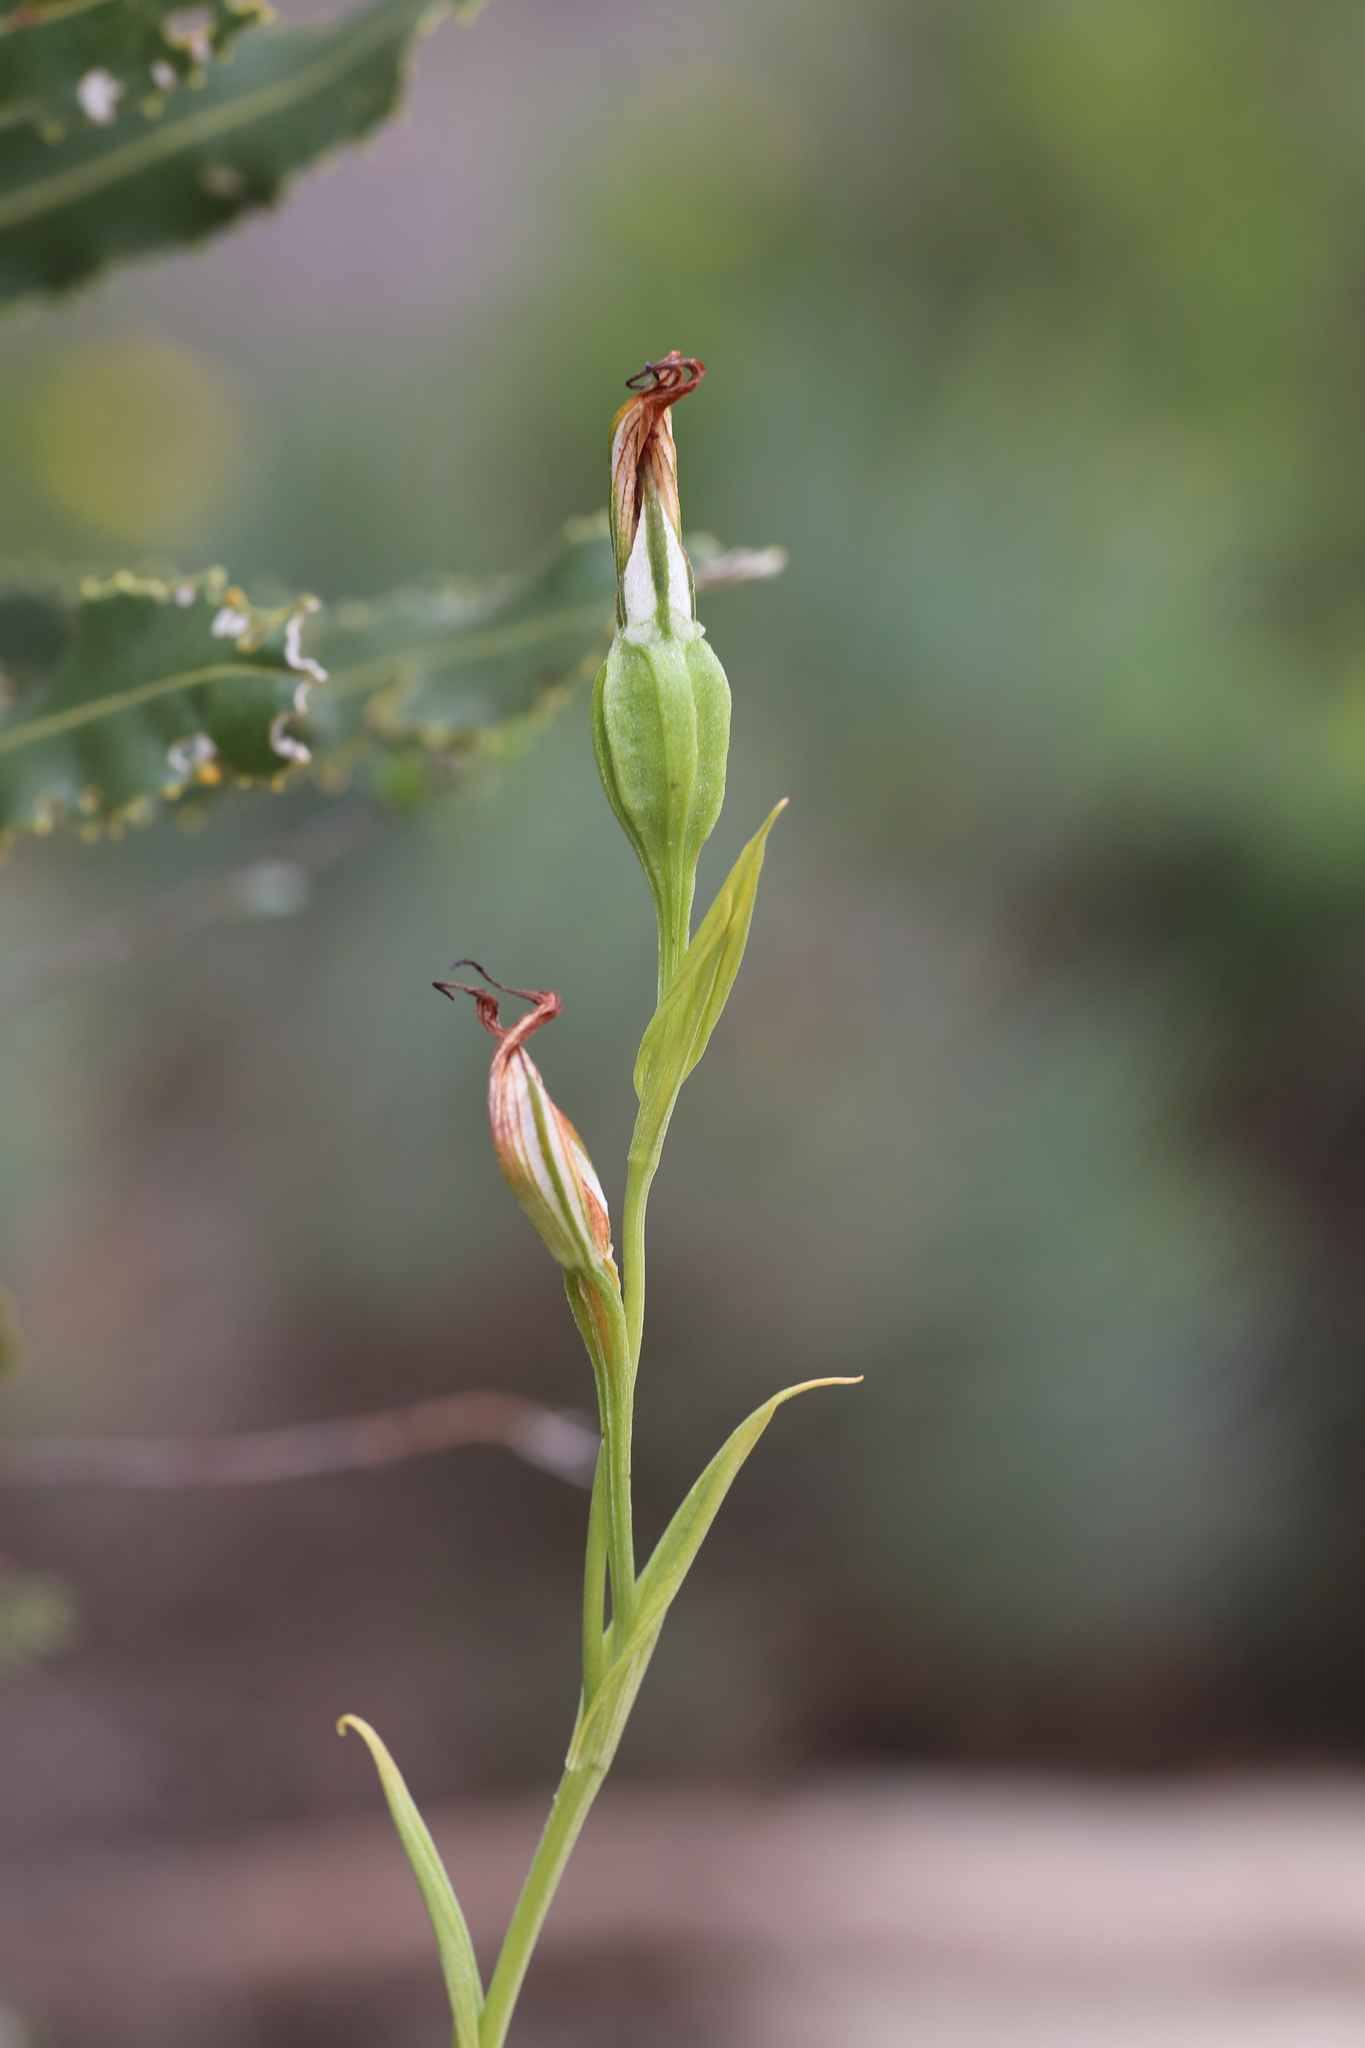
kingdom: Plantae
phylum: Tracheophyta
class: Liliopsida
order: Asparagales
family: Orchidaceae
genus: Pterostylis
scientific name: Pterostylis recurva
